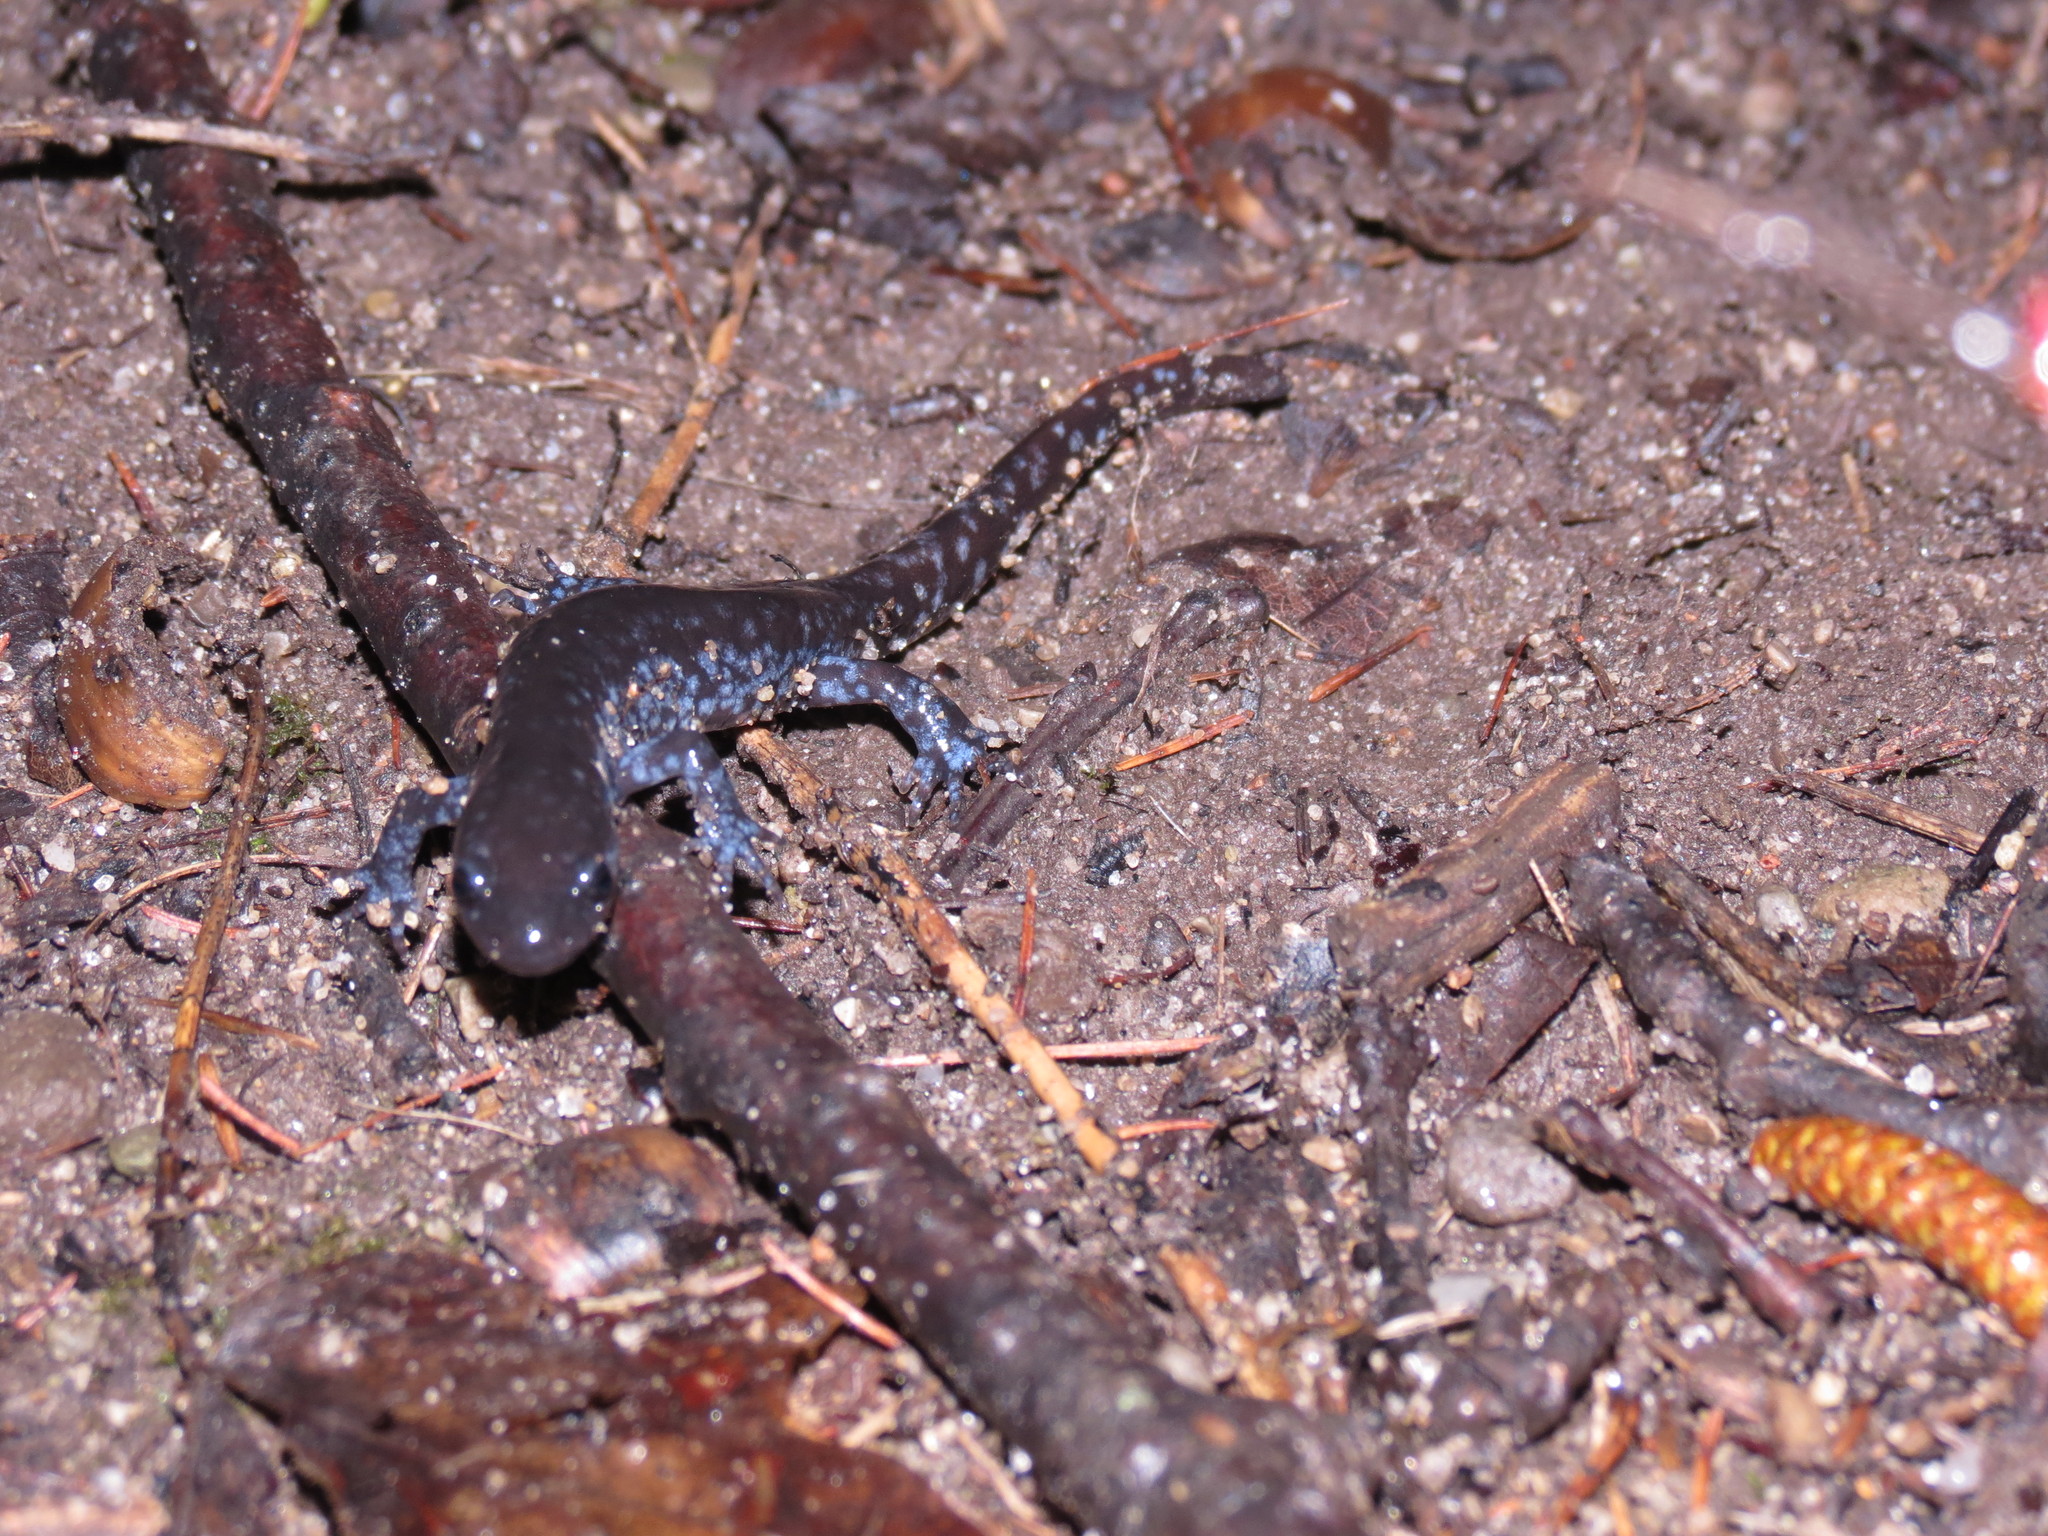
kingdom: Animalia
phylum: Chordata
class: Amphibia
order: Caudata
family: Ambystomatidae
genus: Ambystoma
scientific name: Ambystoma unisexual
